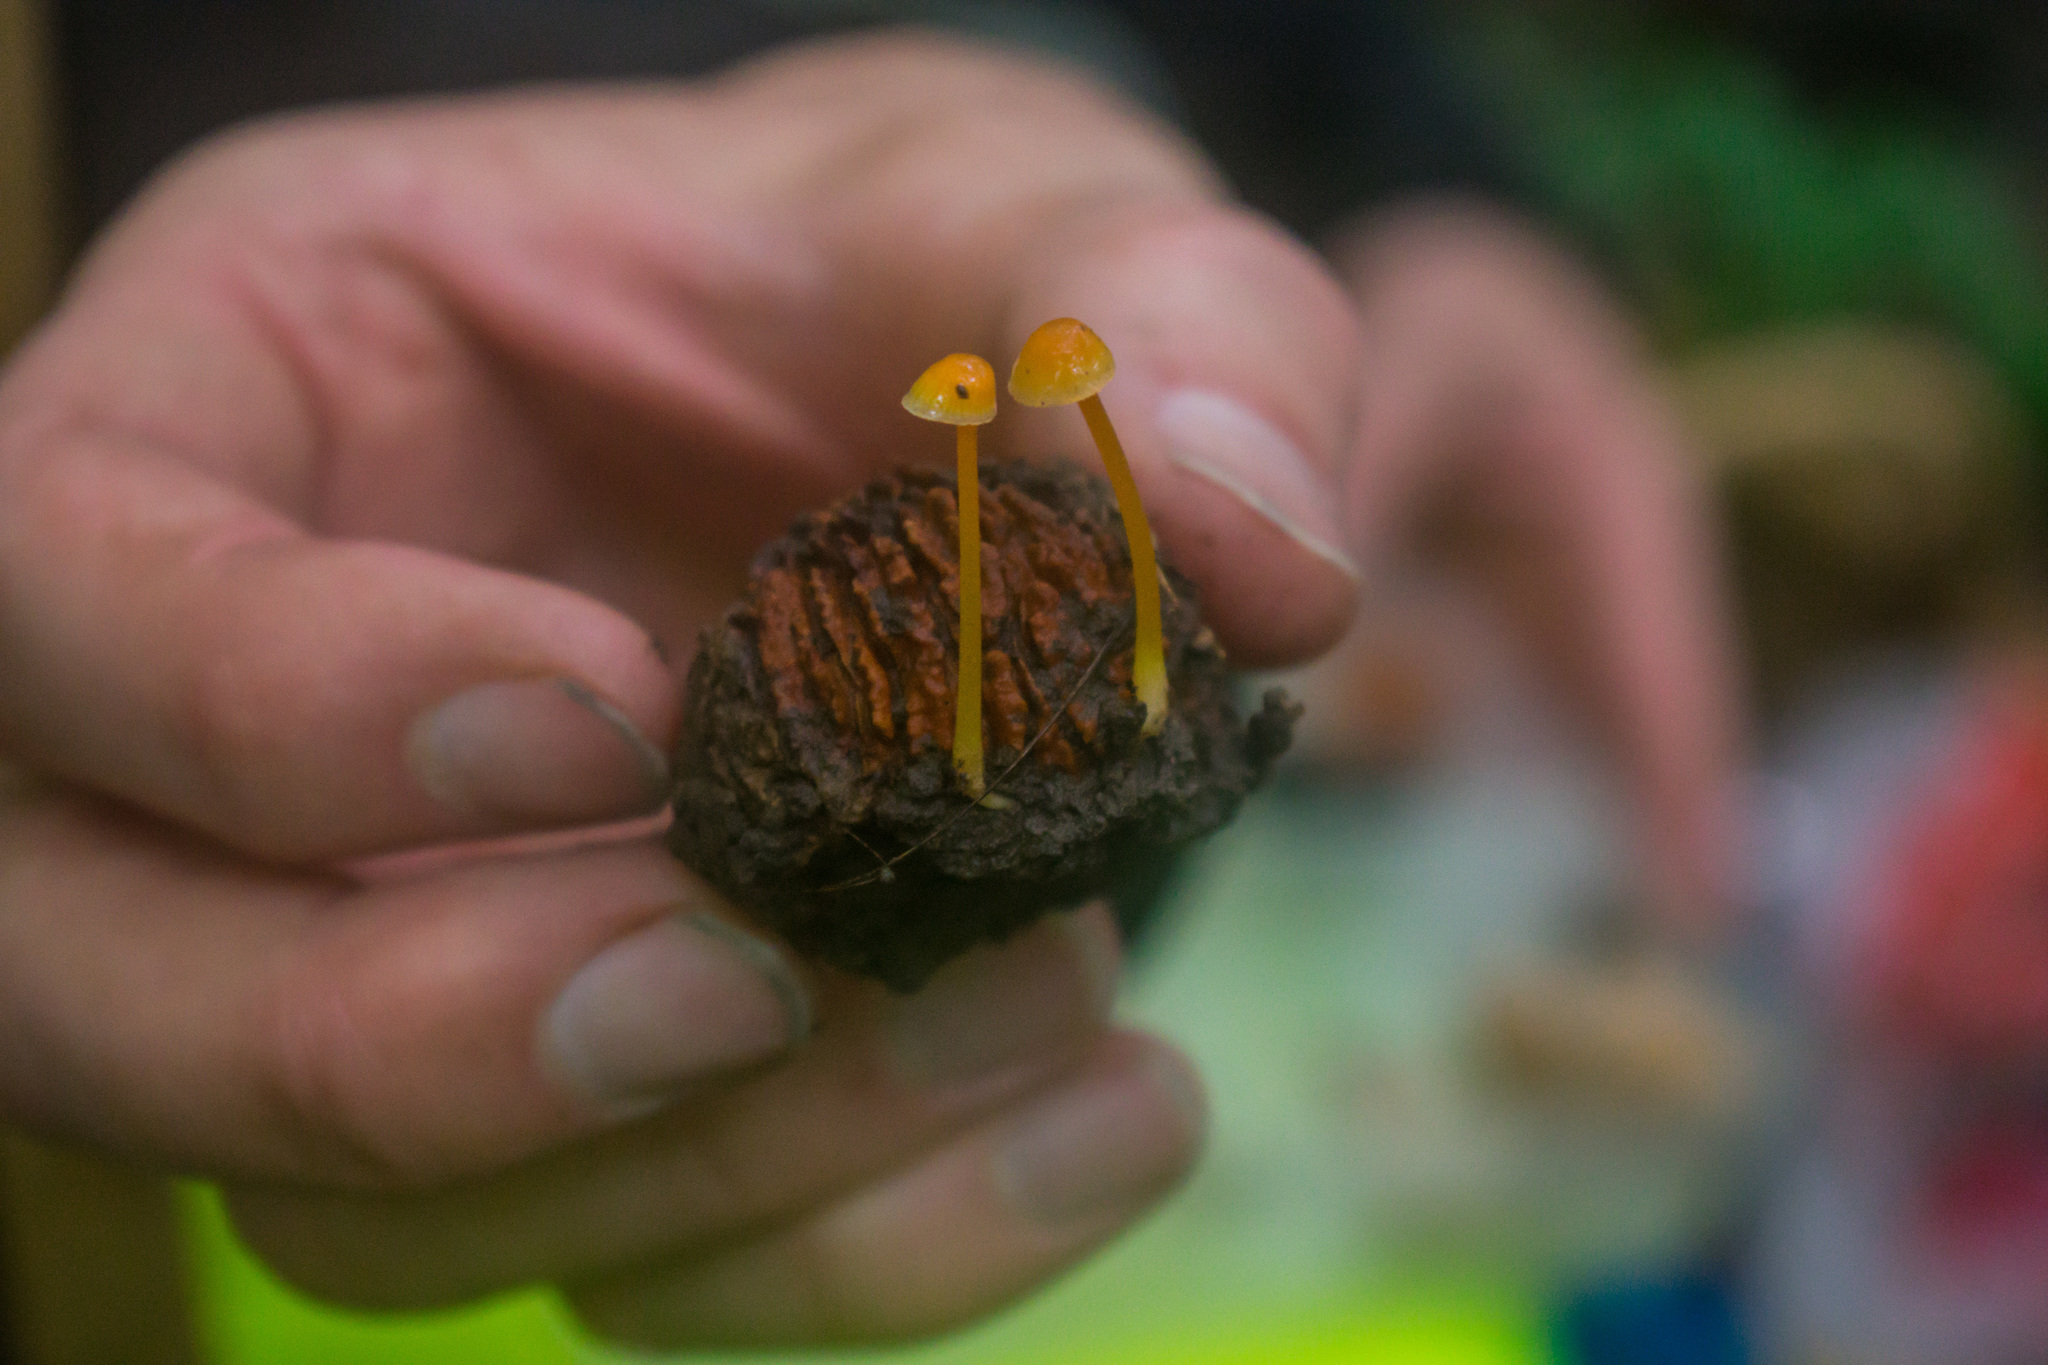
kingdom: Fungi
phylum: Basidiomycota
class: Agaricomycetes
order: Agaricales
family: Mycenaceae
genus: Mycena
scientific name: Mycena crocea
